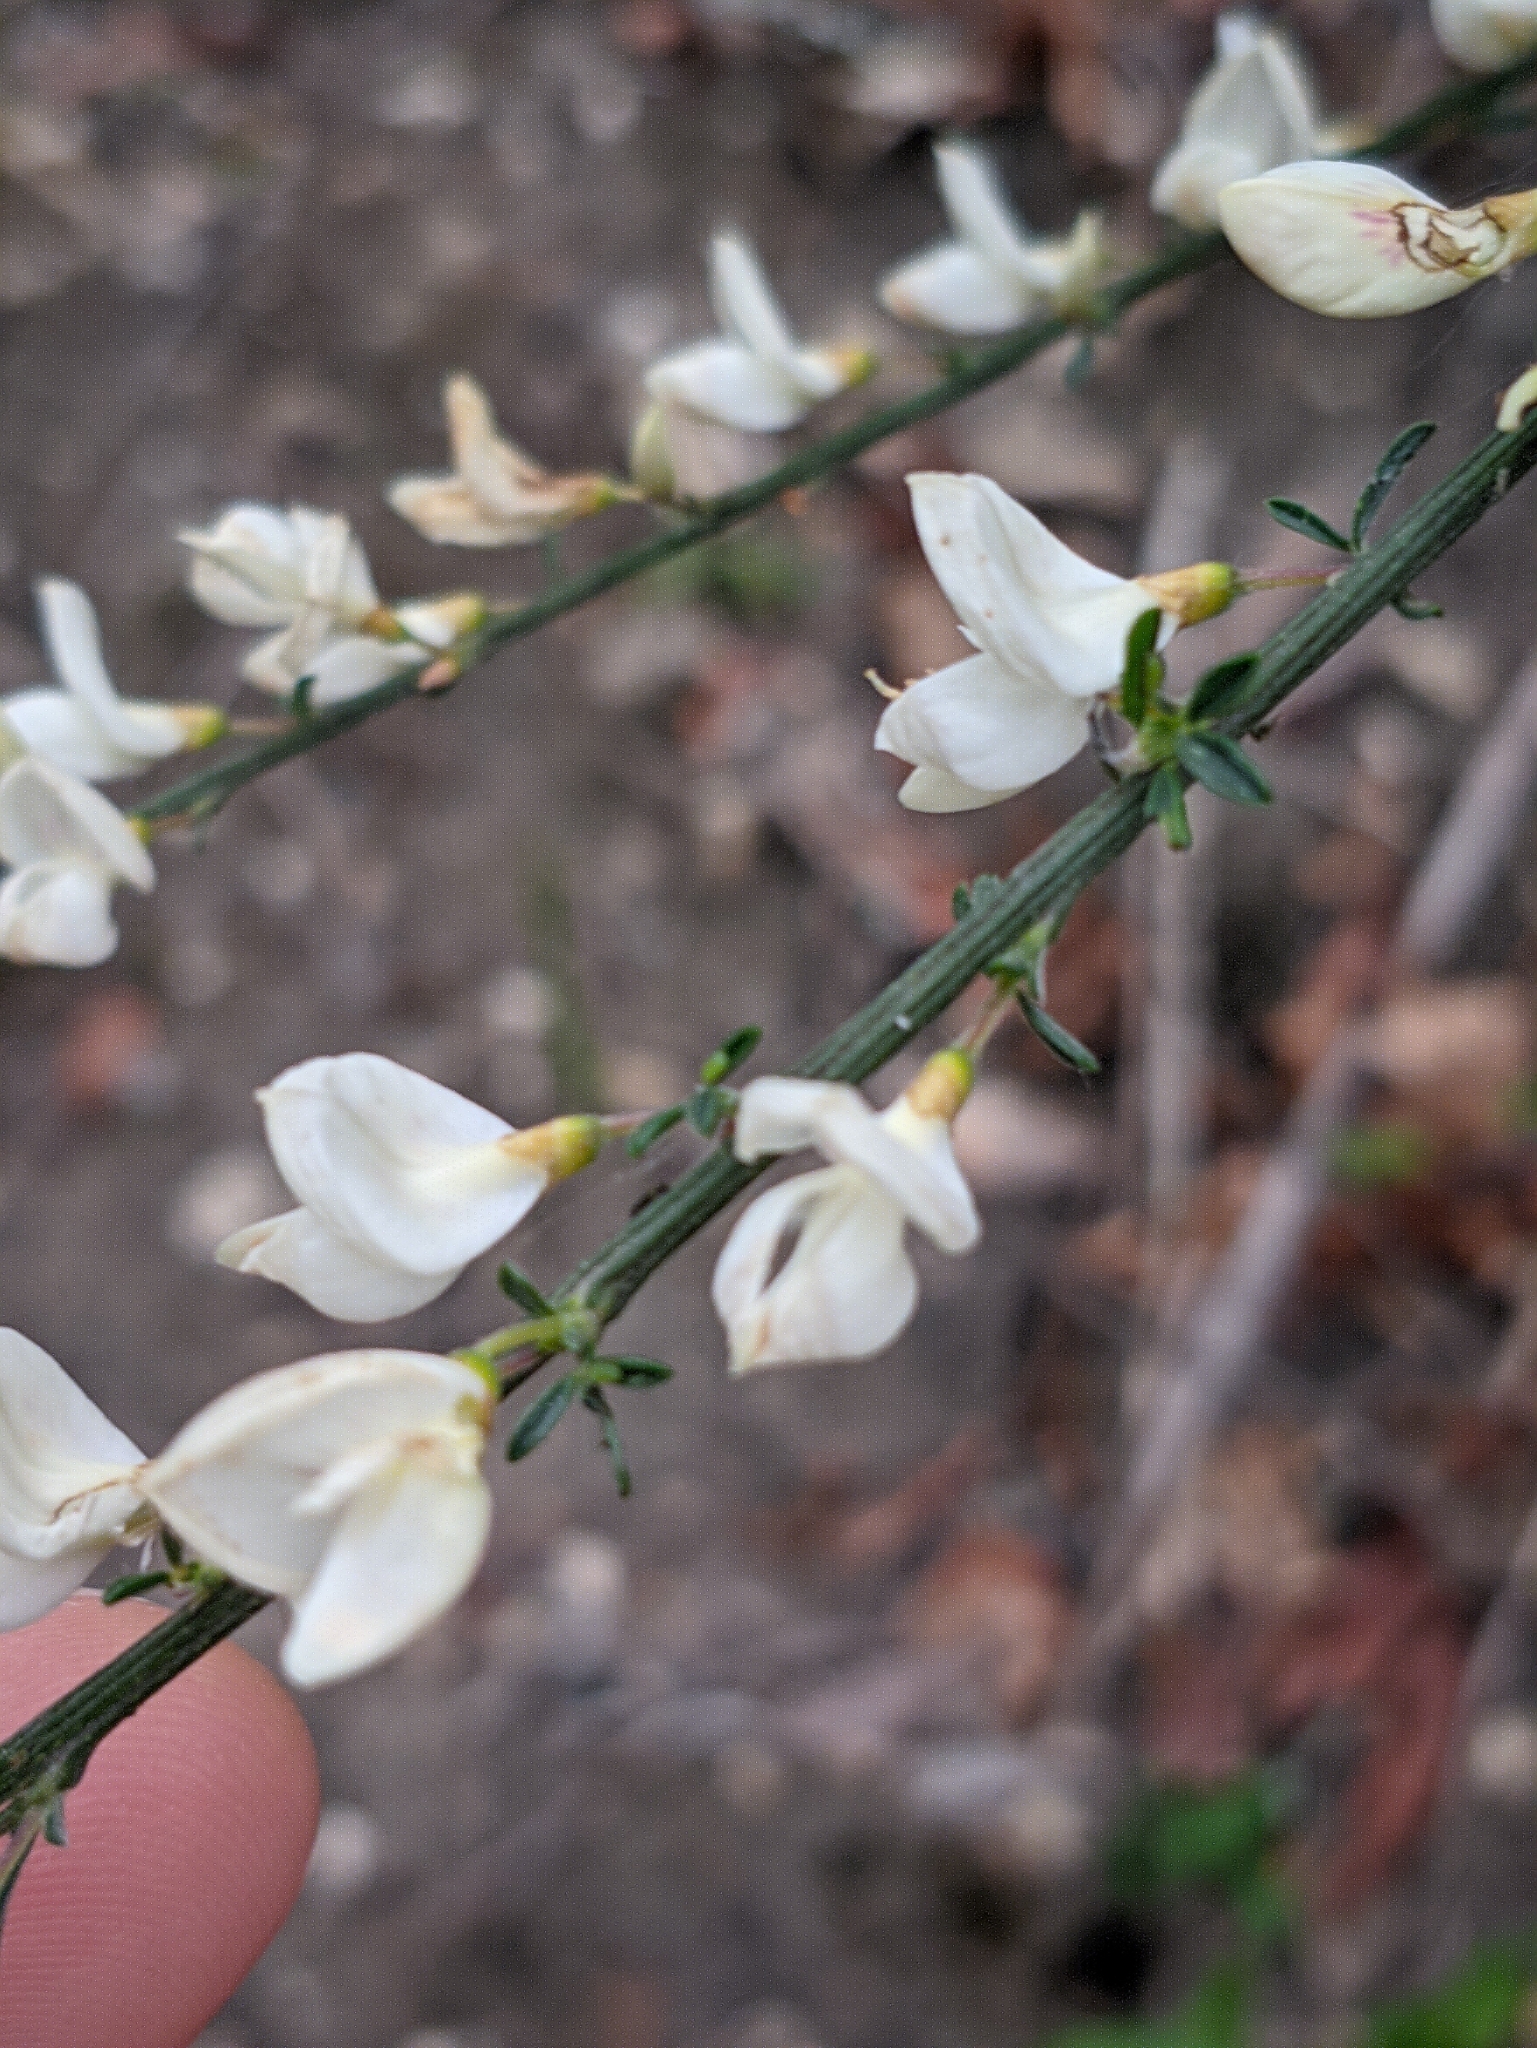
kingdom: Plantae
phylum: Tracheophyta
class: Magnoliopsida
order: Fabales
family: Fabaceae
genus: Cytisus
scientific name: Cytisus multiflorus
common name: White broom
